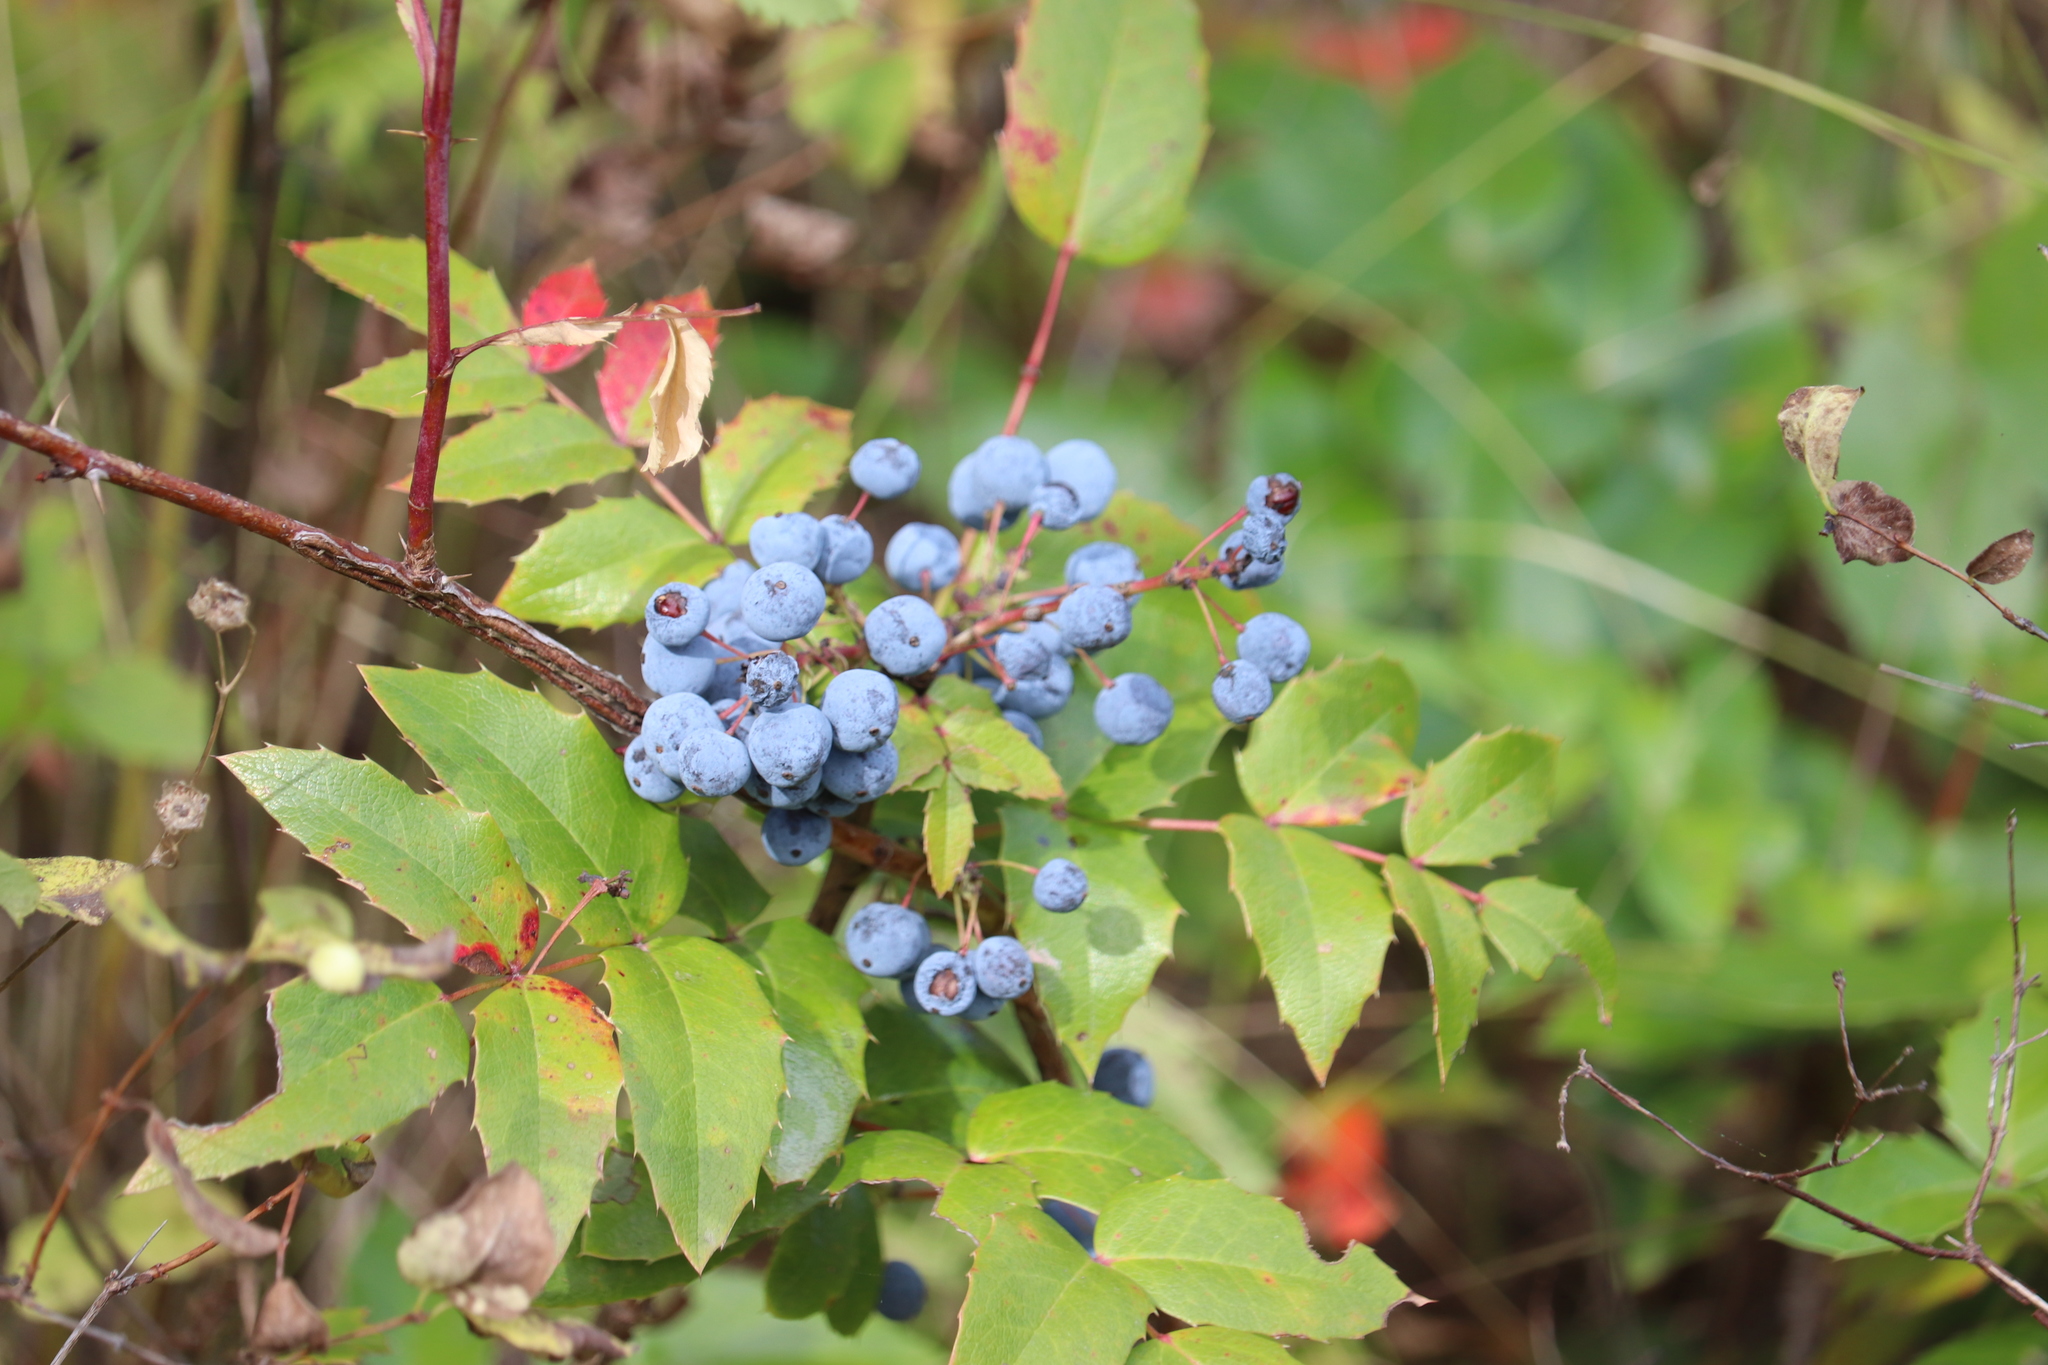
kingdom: Plantae
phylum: Tracheophyta
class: Magnoliopsida
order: Ranunculales
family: Berberidaceae
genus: Mahonia
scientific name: Mahonia aquifolium
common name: Oregon-grape
